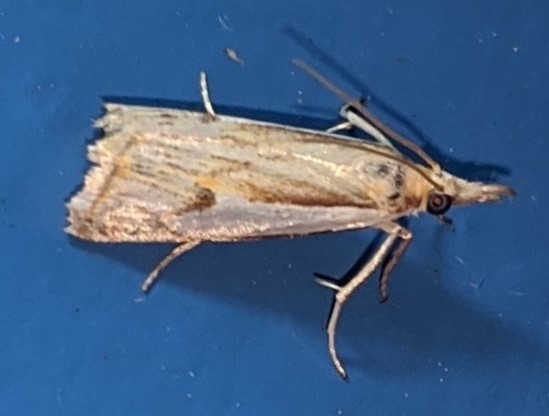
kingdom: Animalia
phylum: Arthropoda
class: Insecta
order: Lepidoptera
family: Crambidae
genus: Crambus
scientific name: Crambus agitatellus
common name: Double-banded grass-veneer
